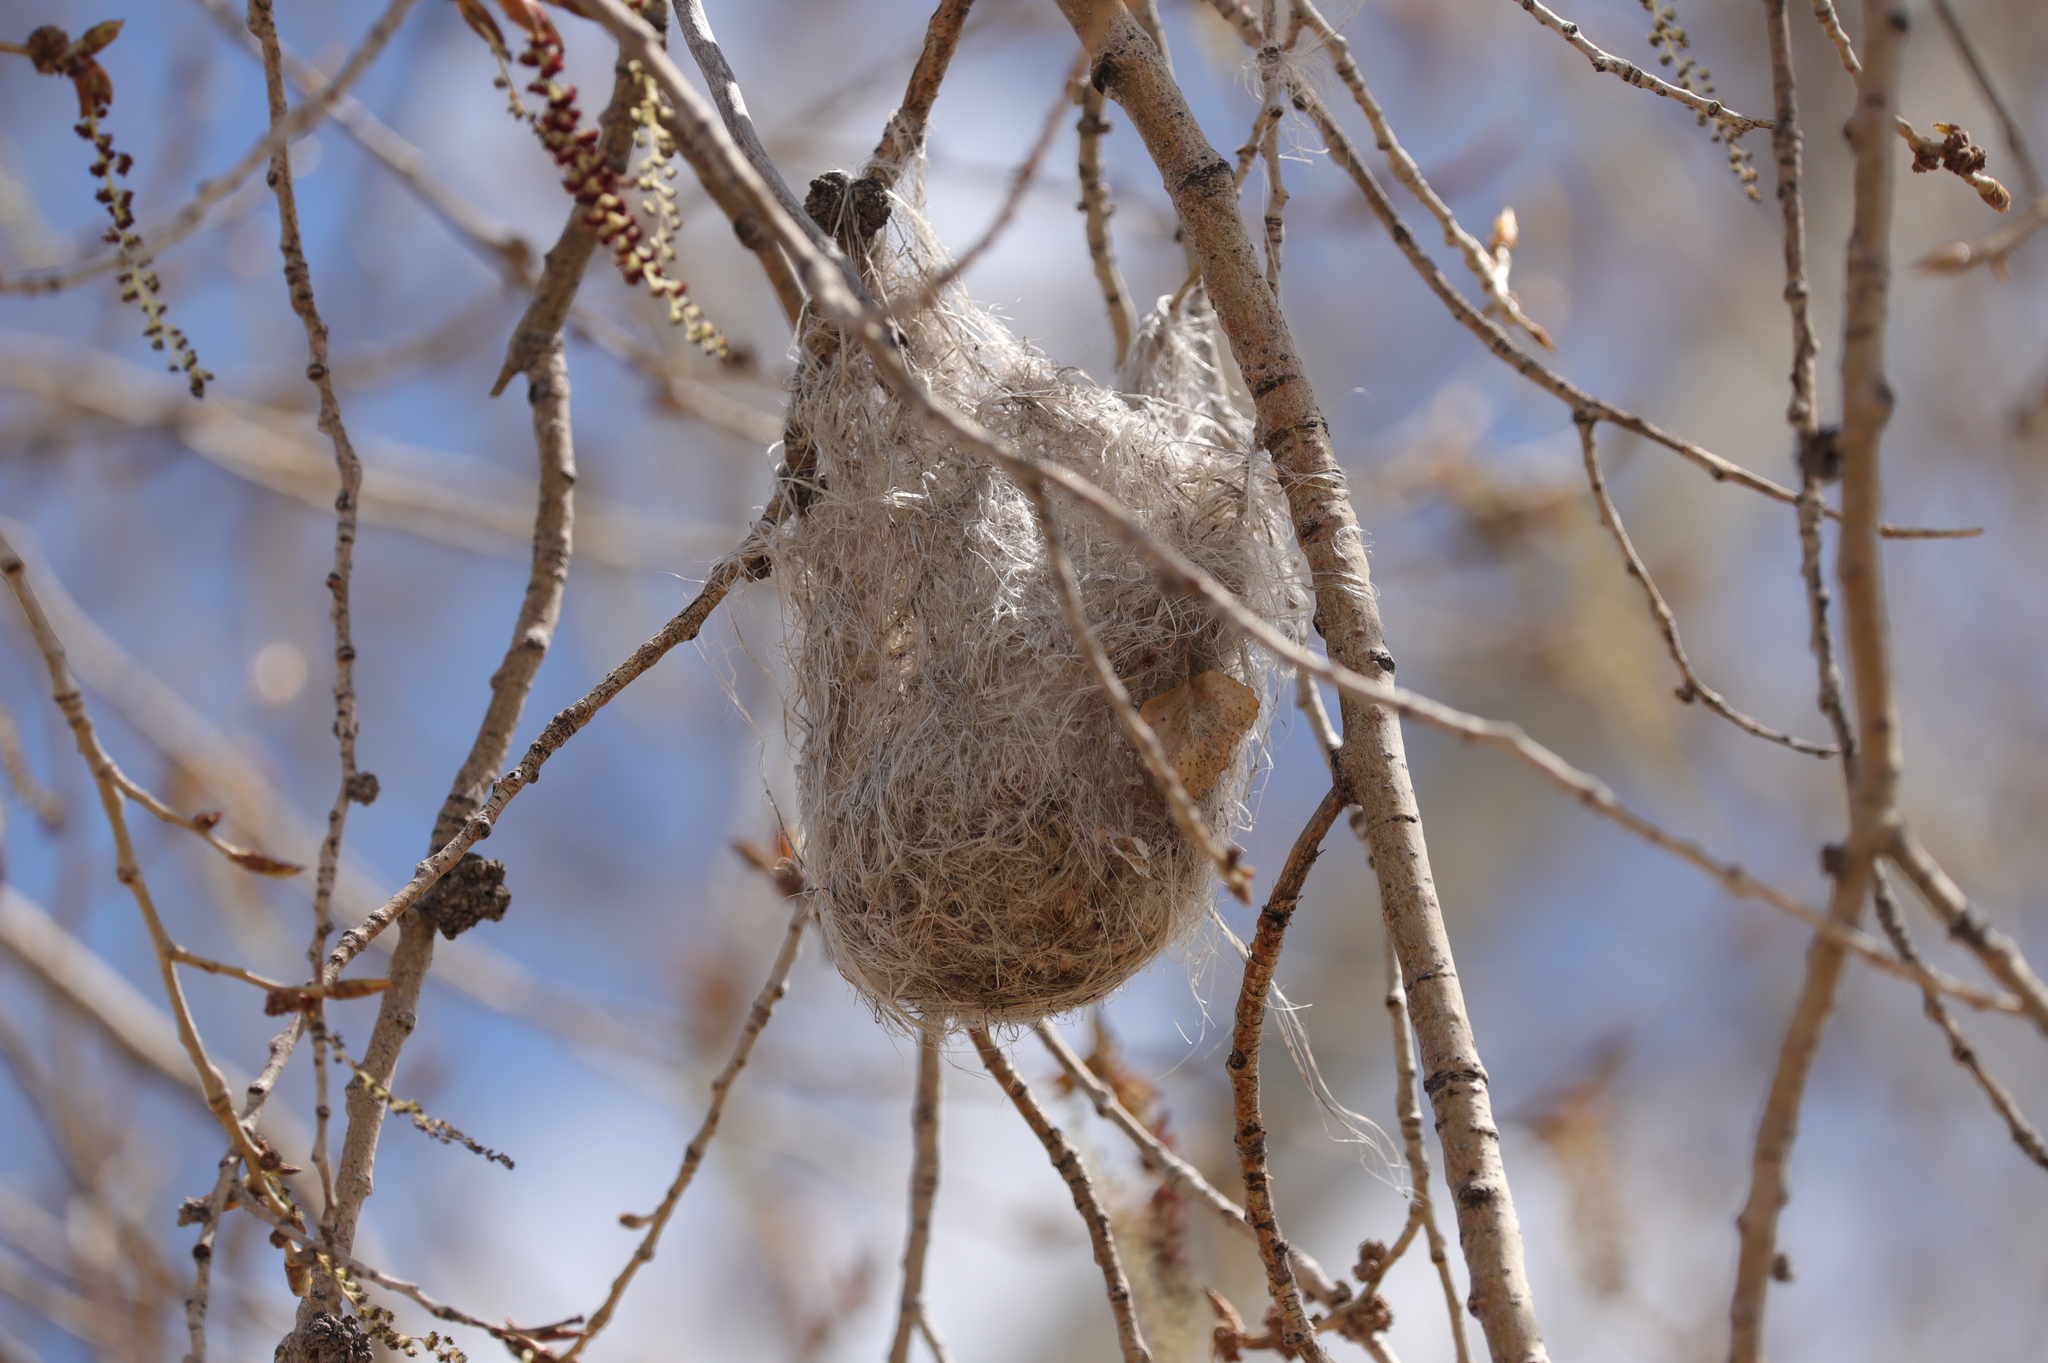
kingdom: Animalia
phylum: Chordata
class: Aves
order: Passeriformes
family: Icteridae
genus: Icterus
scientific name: Icterus bullockii
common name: Bullock's oriole
